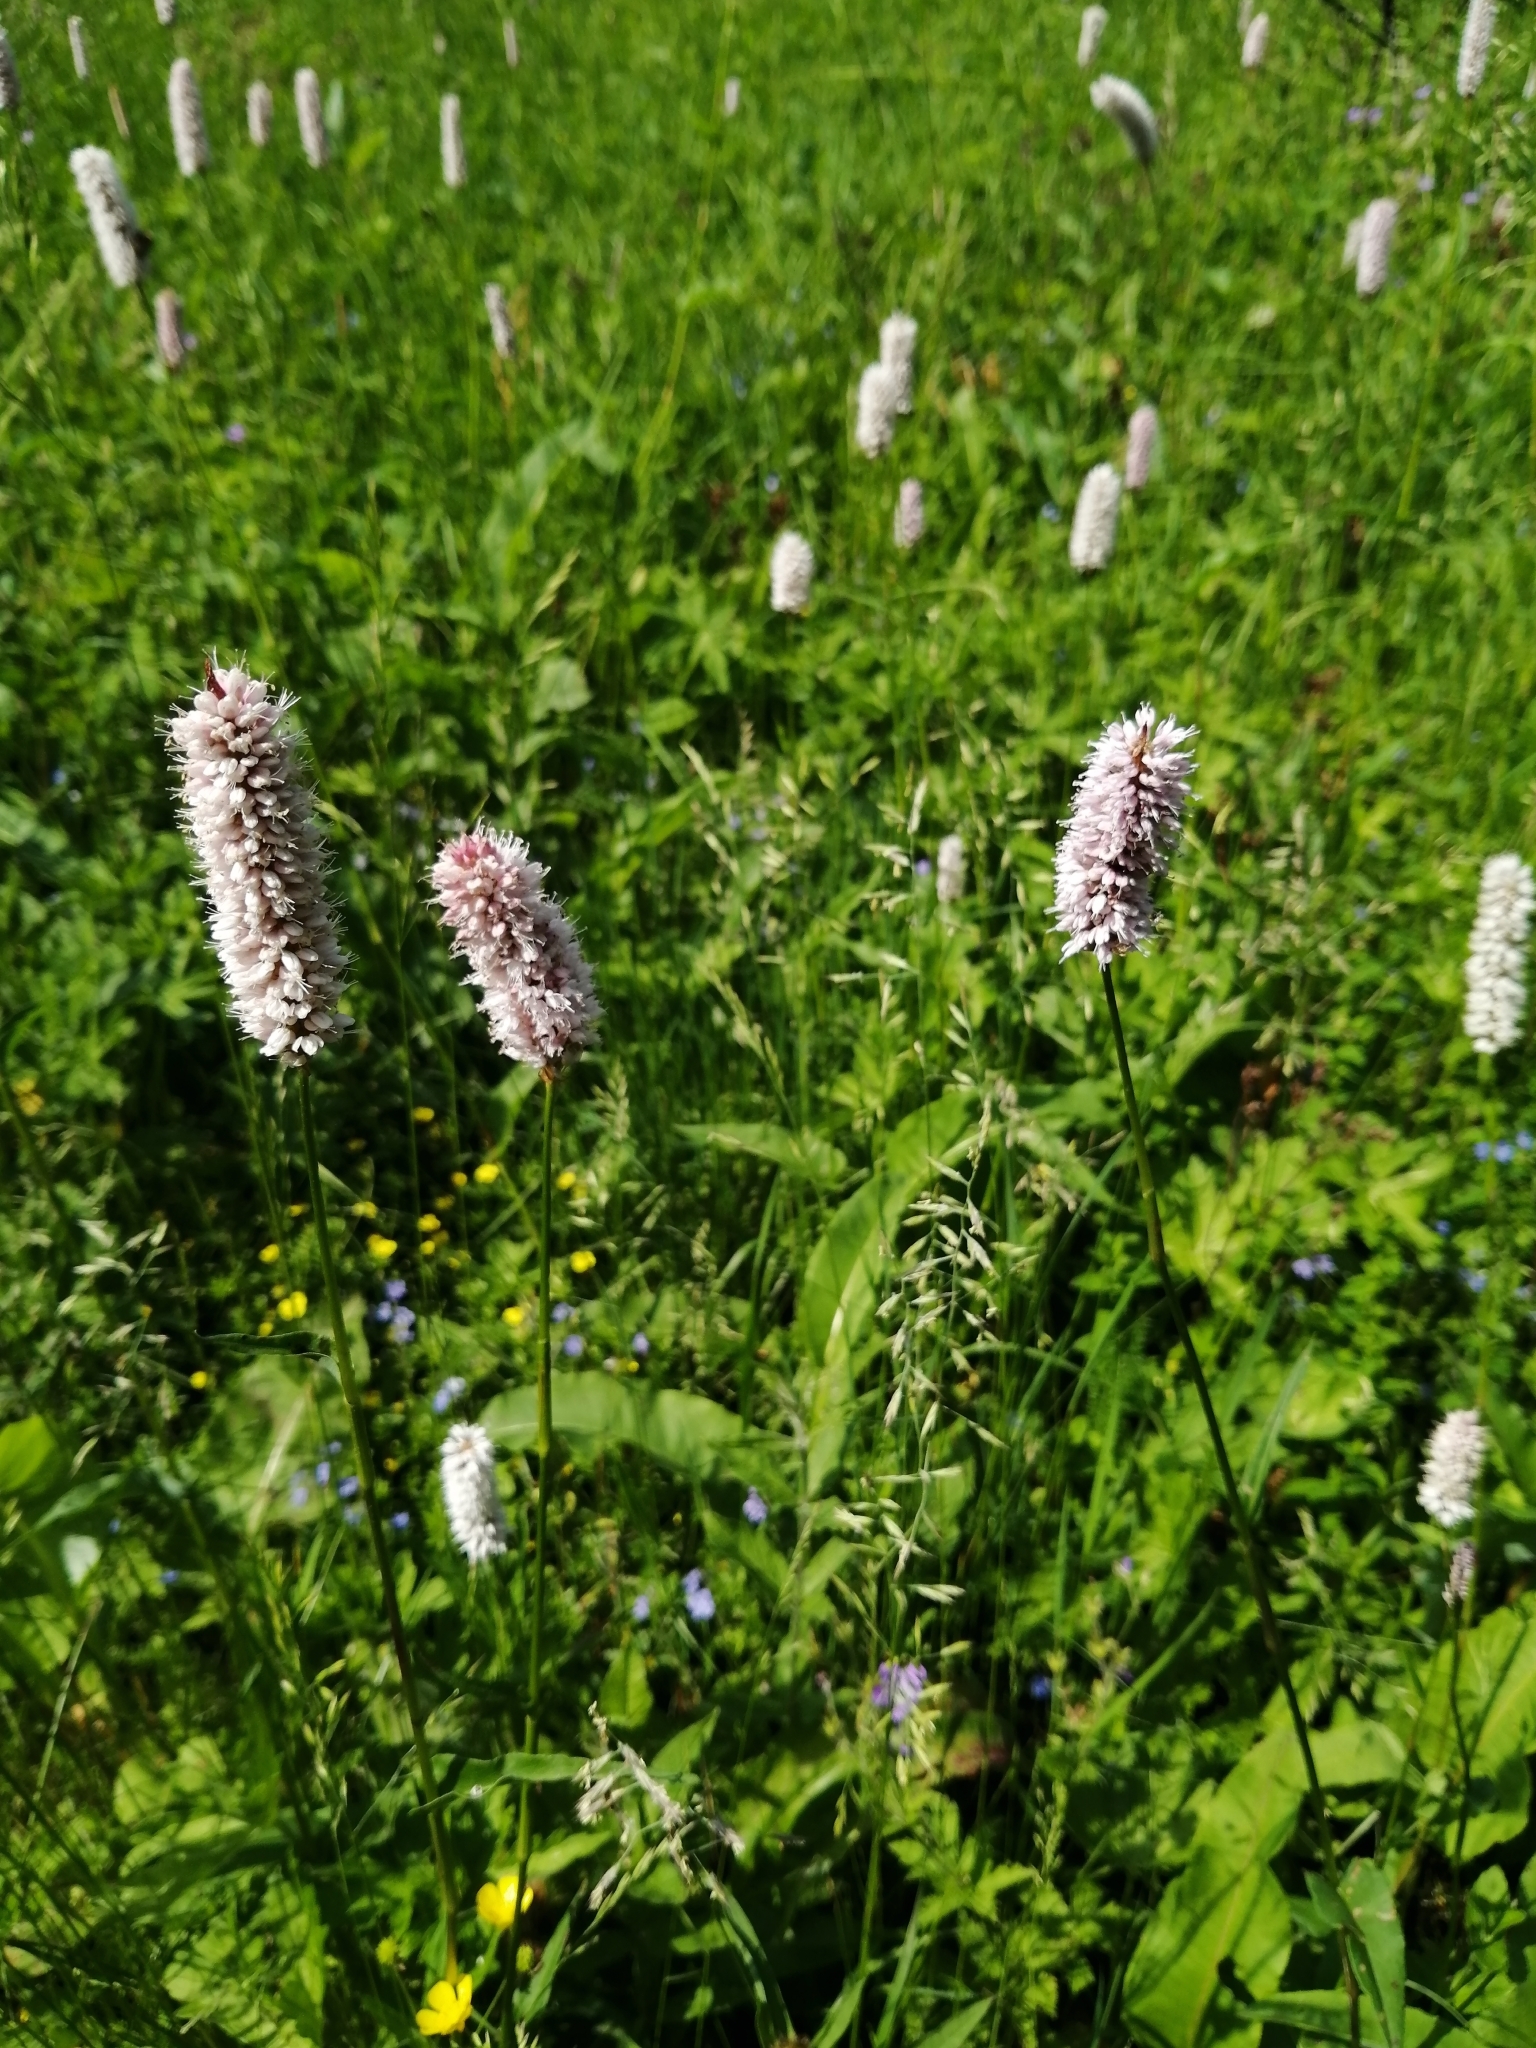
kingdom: Plantae
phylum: Tracheophyta
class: Magnoliopsida
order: Caryophyllales
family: Polygonaceae
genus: Bistorta
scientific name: Bistorta officinalis
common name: Common bistort
